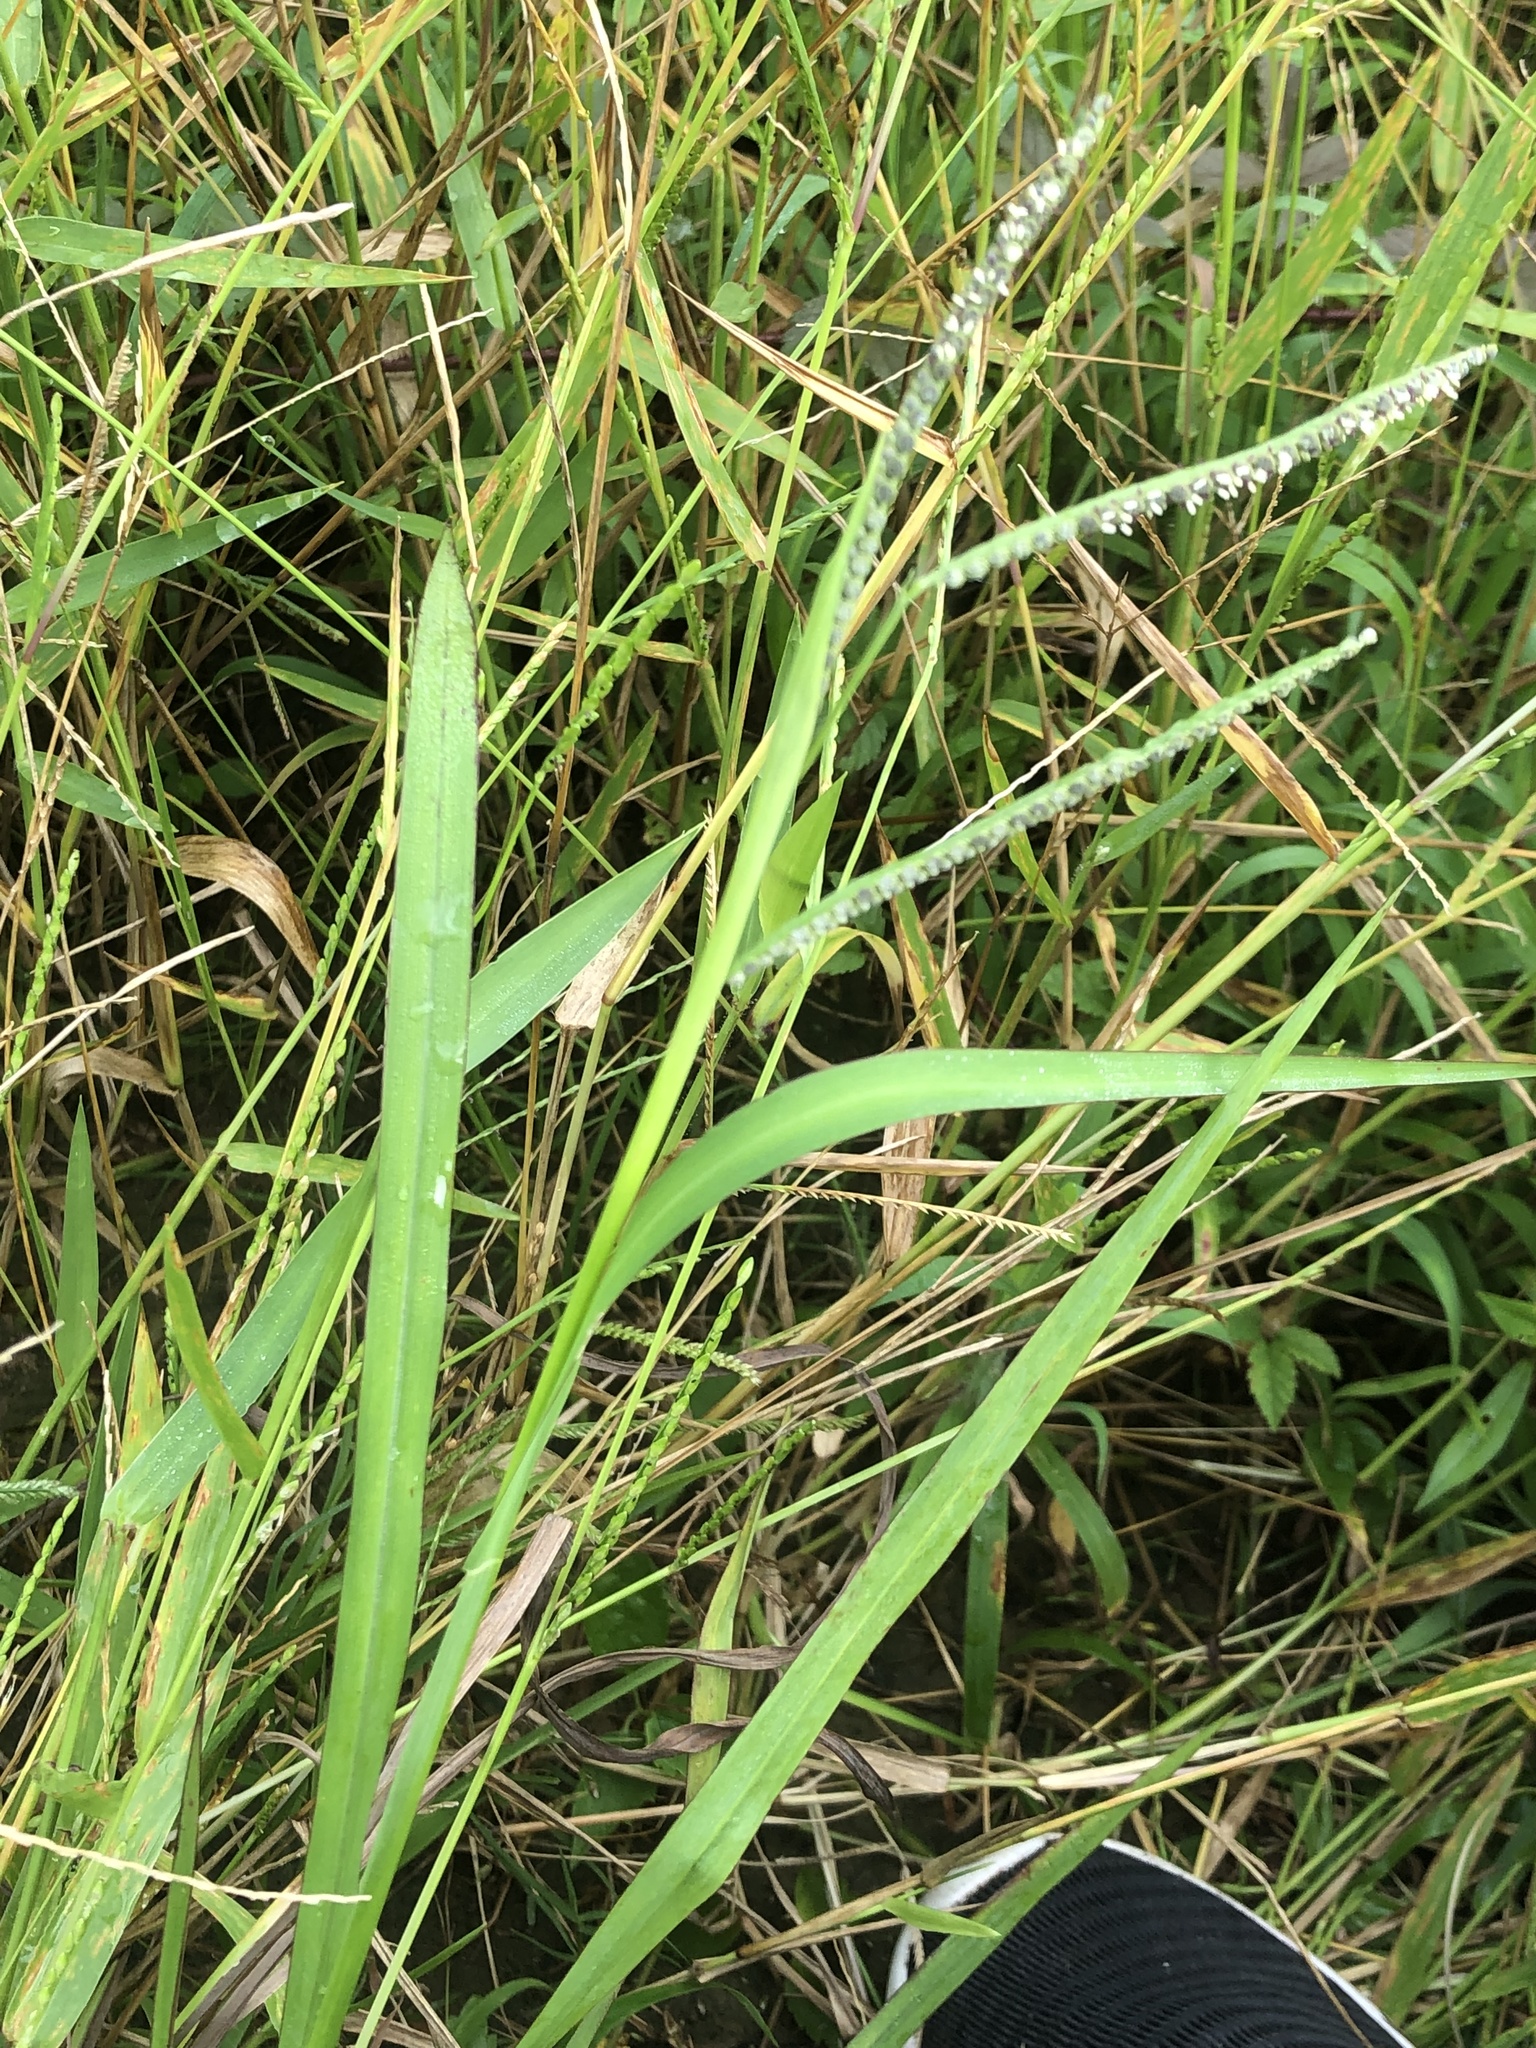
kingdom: Plantae
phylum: Tracheophyta
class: Liliopsida
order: Poales
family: Poaceae
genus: Paspalum
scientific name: Paspalum scrobiculatum
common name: Kodo millet
